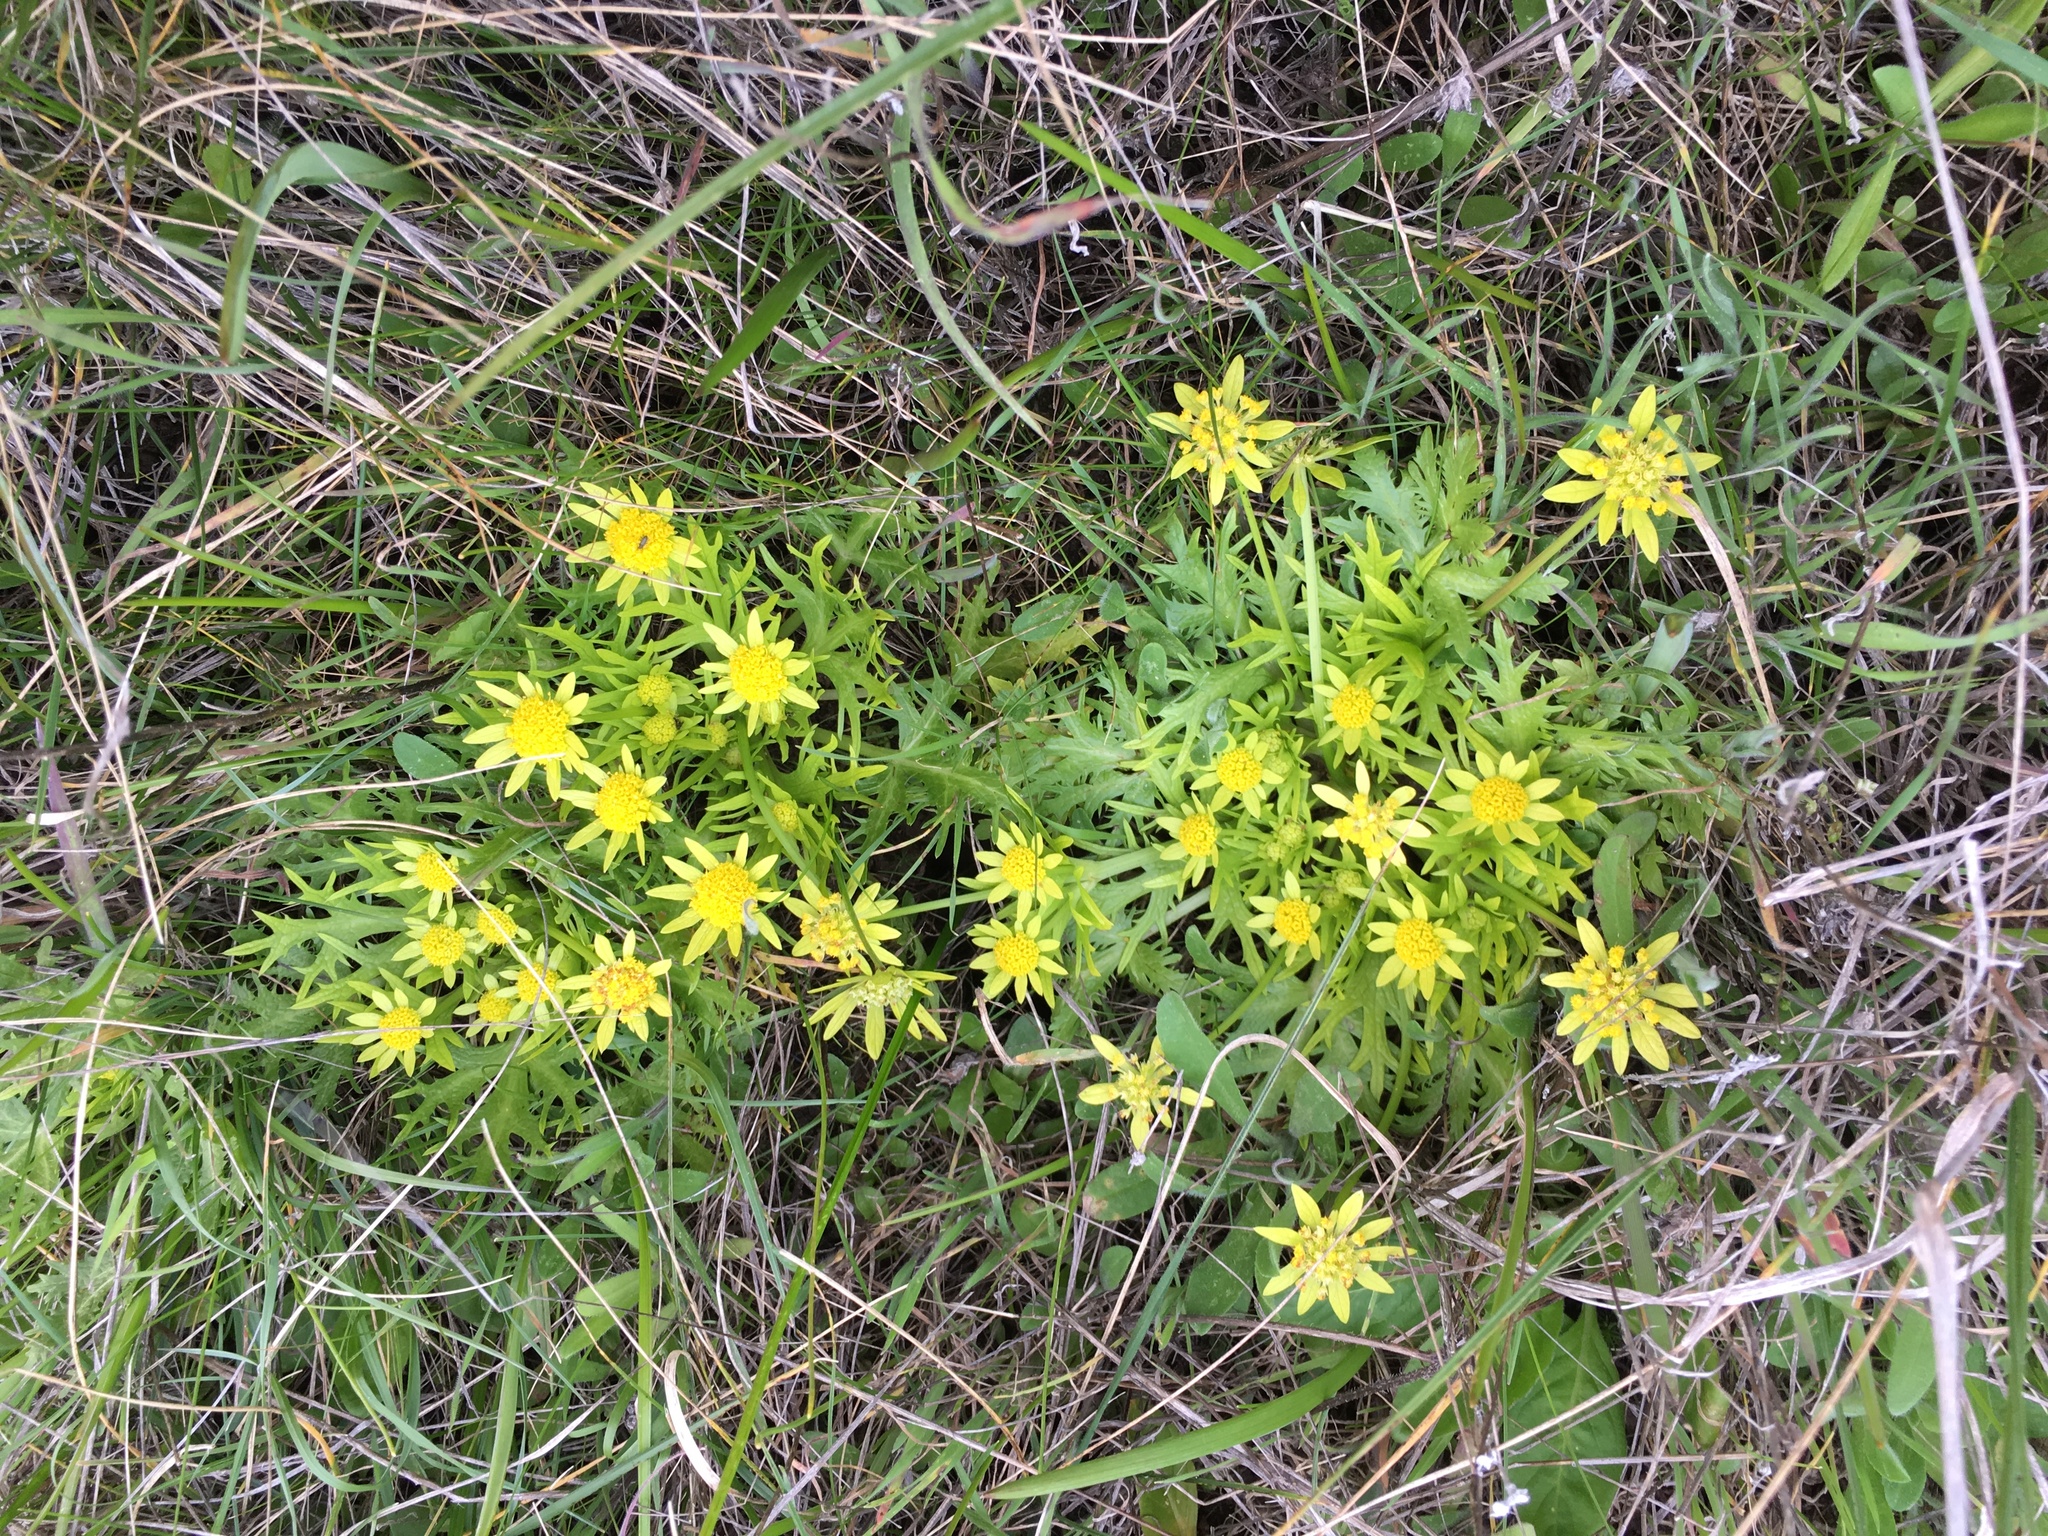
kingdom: Plantae
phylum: Tracheophyta
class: Magnoliopsida
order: Apiales
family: Apiaceae
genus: Sanicula
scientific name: Sanicula arctopoides
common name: Footsteps-of-spring
